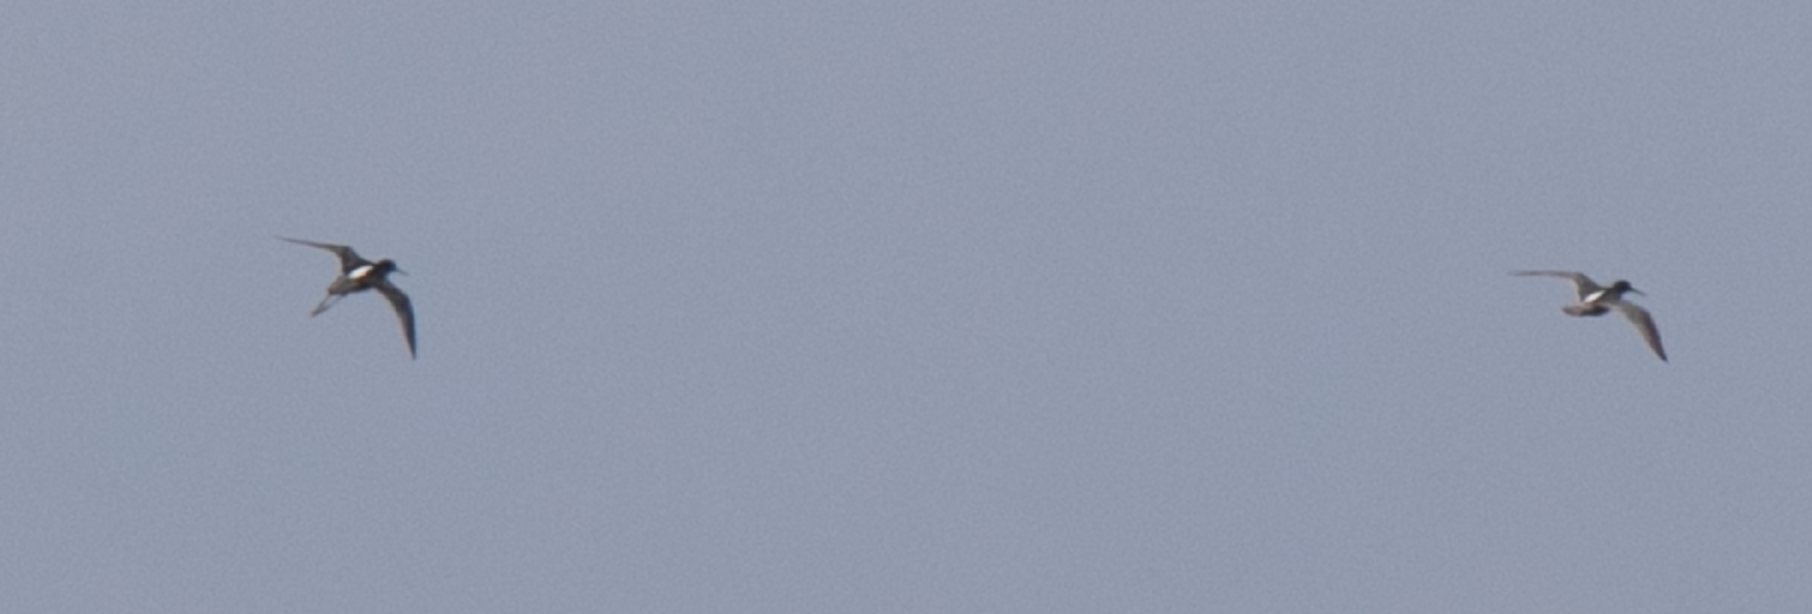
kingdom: Animalia
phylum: Chordata
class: Aves
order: Charadriiformes
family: Scolopacidae
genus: Tringa
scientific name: Tringa erythropus
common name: Spotted redshank
